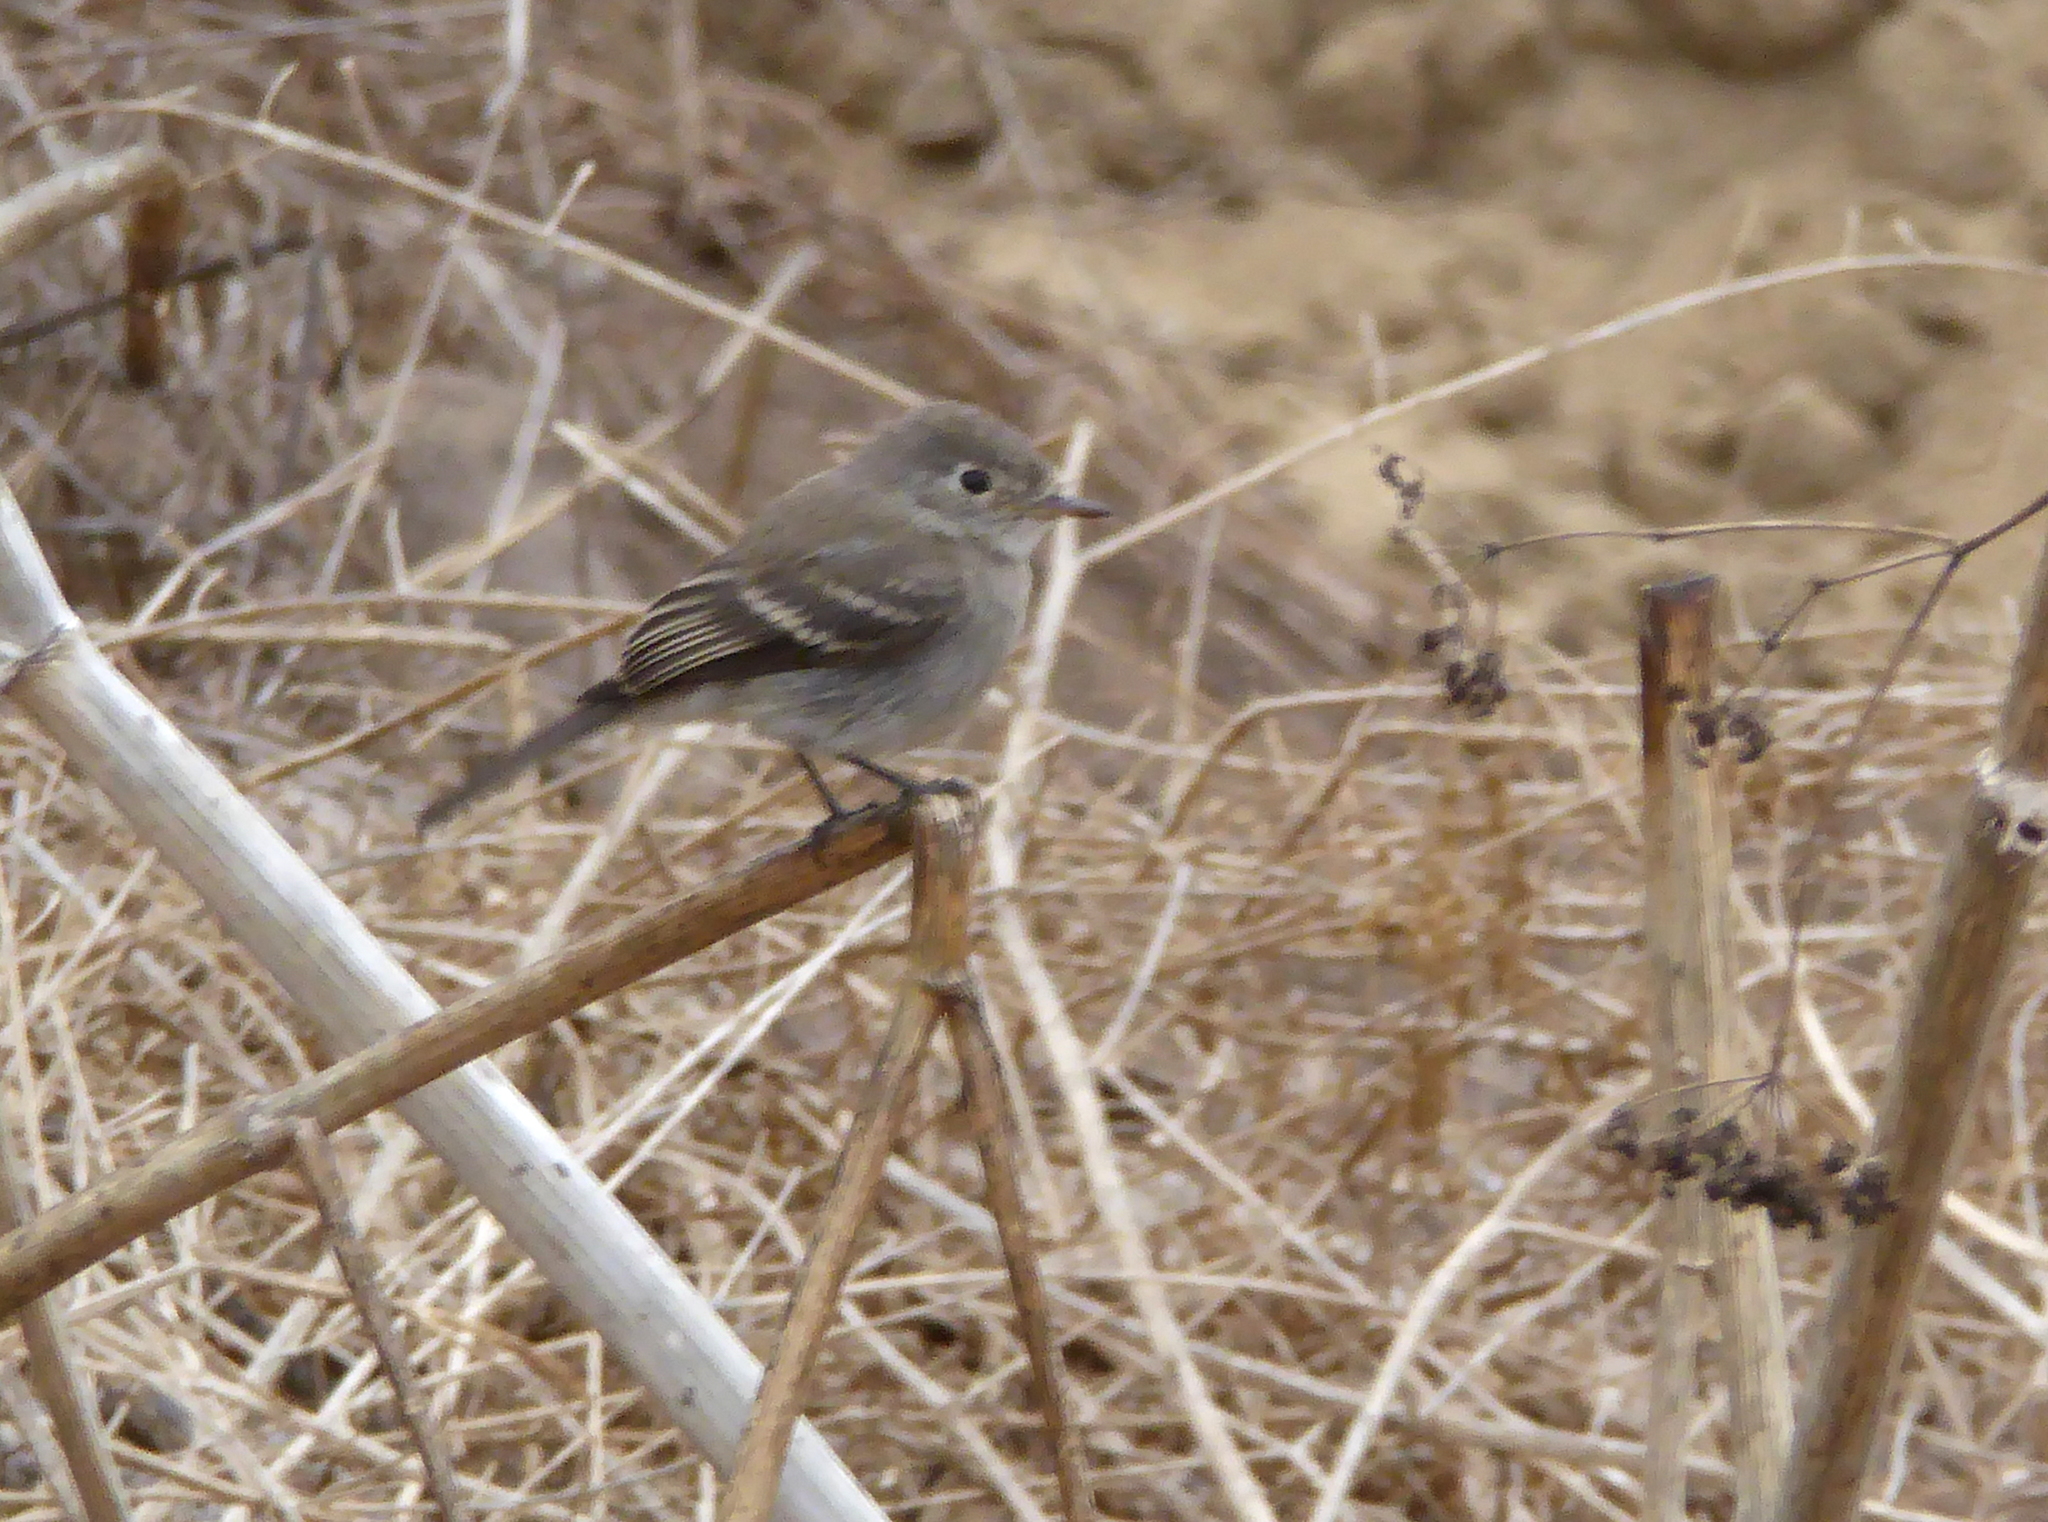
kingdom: Animalia
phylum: Chordata
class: Aves
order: Passeriformes
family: Tyrannidae
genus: Empidonax
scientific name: Empidonax wrightii
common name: Gray flycatcher
